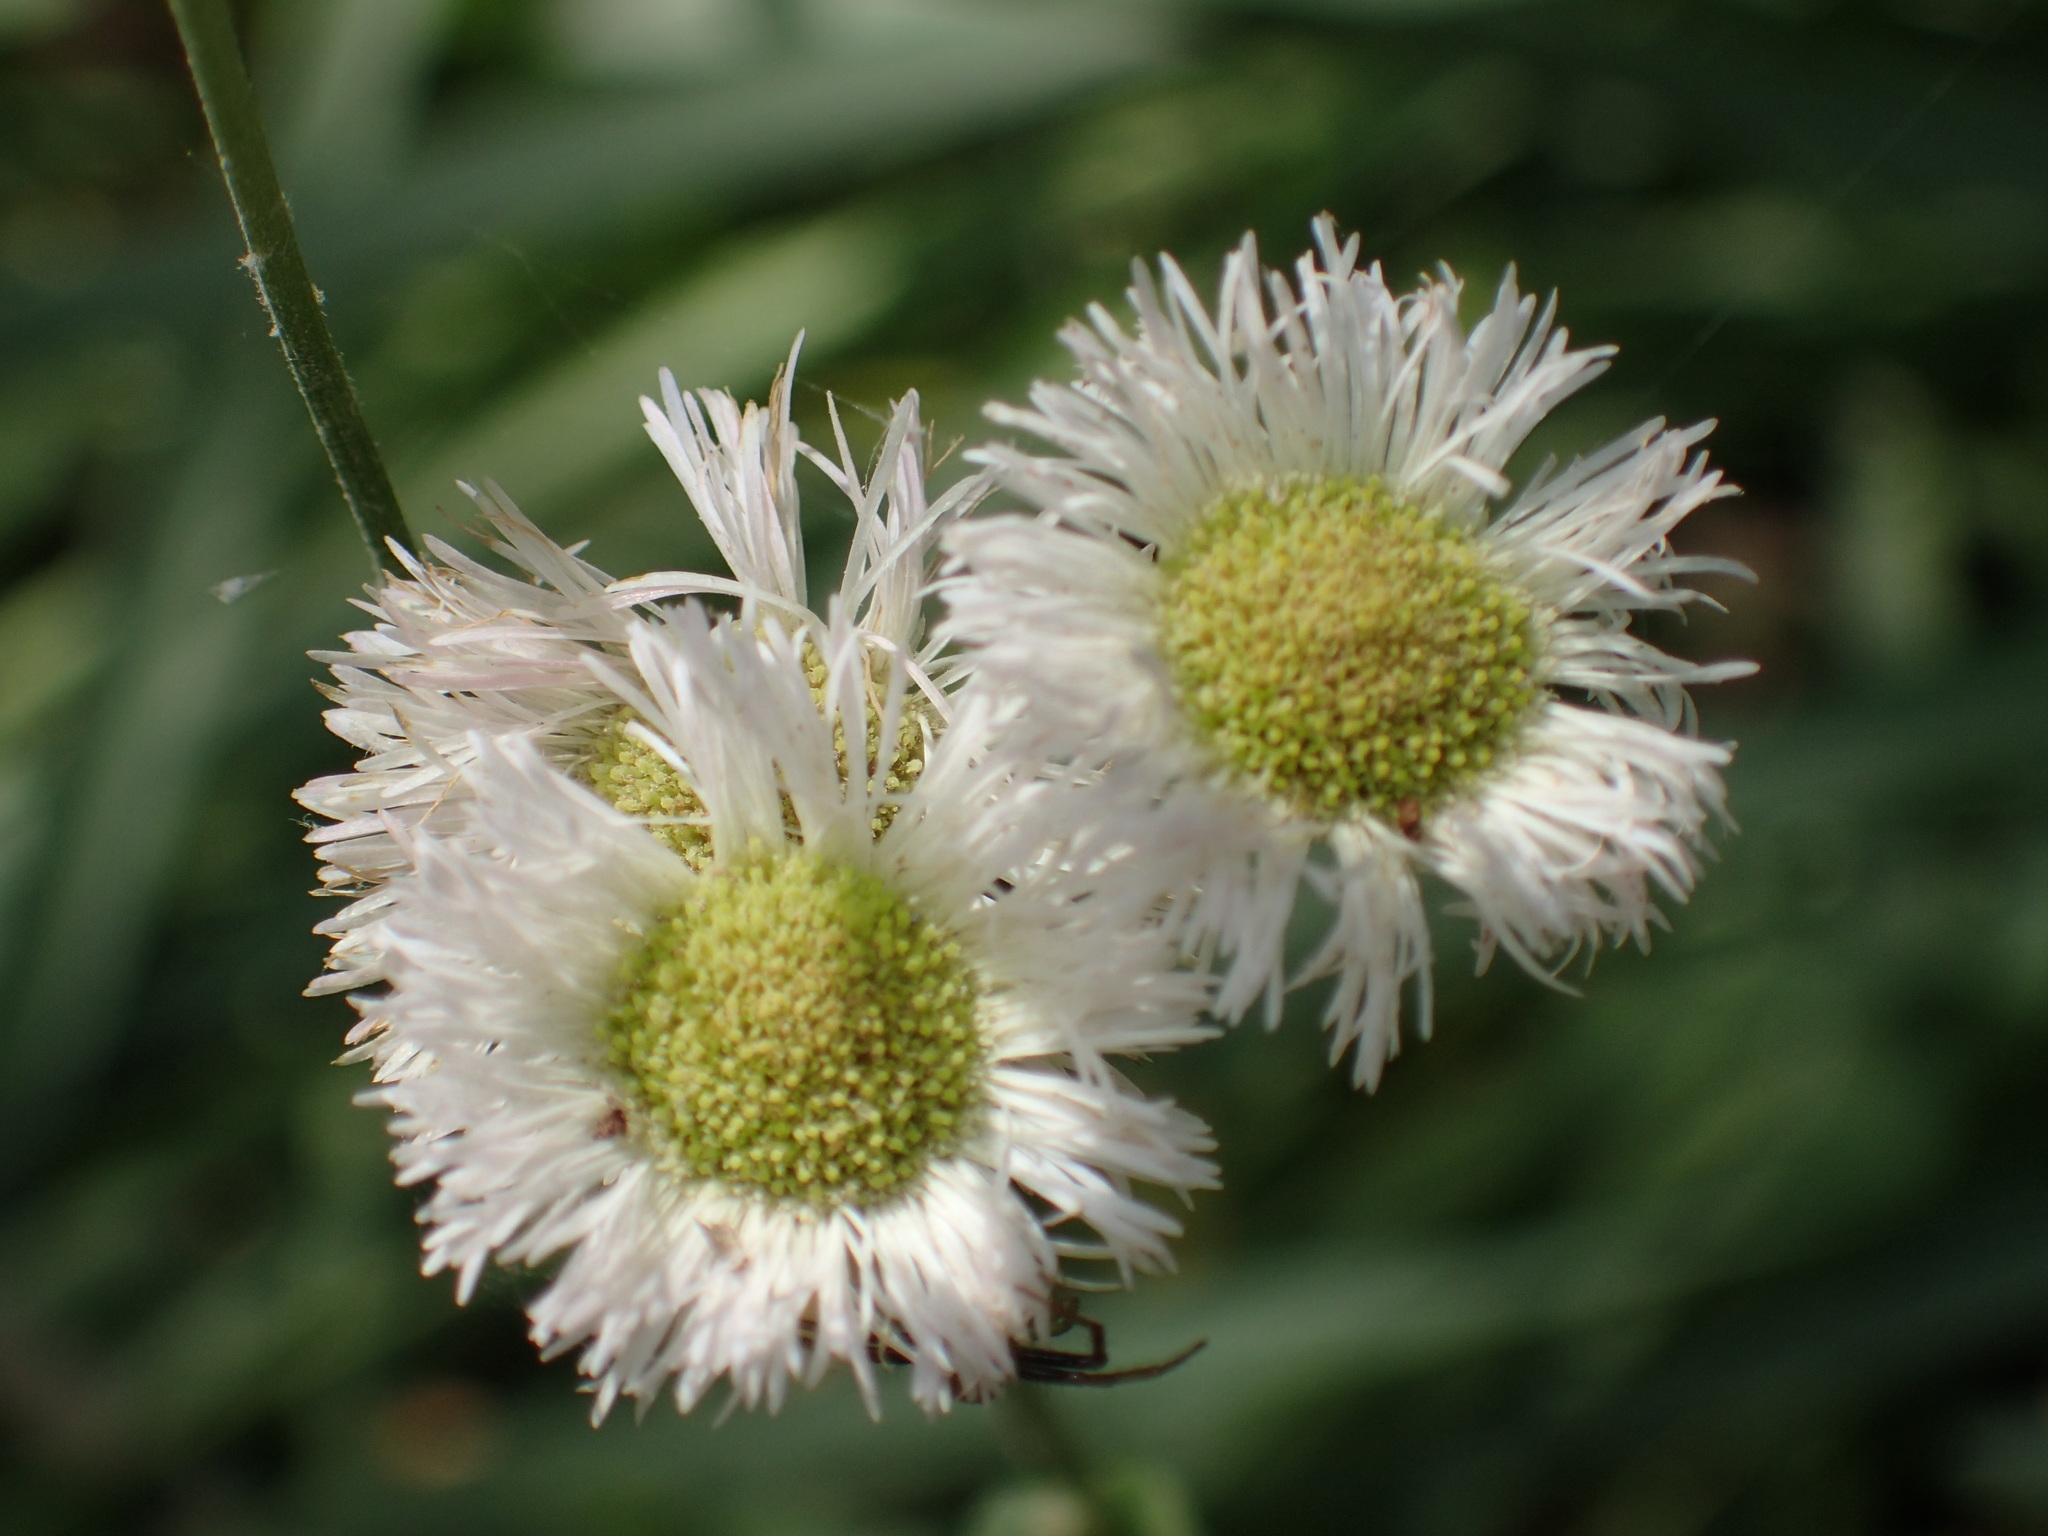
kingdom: Plantae
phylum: Tracheophyta
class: Magnoliopsida
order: Asterales
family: Asteraceae
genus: Erigeron
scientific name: Erigeron philadelphicus
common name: Robin's-plantain
